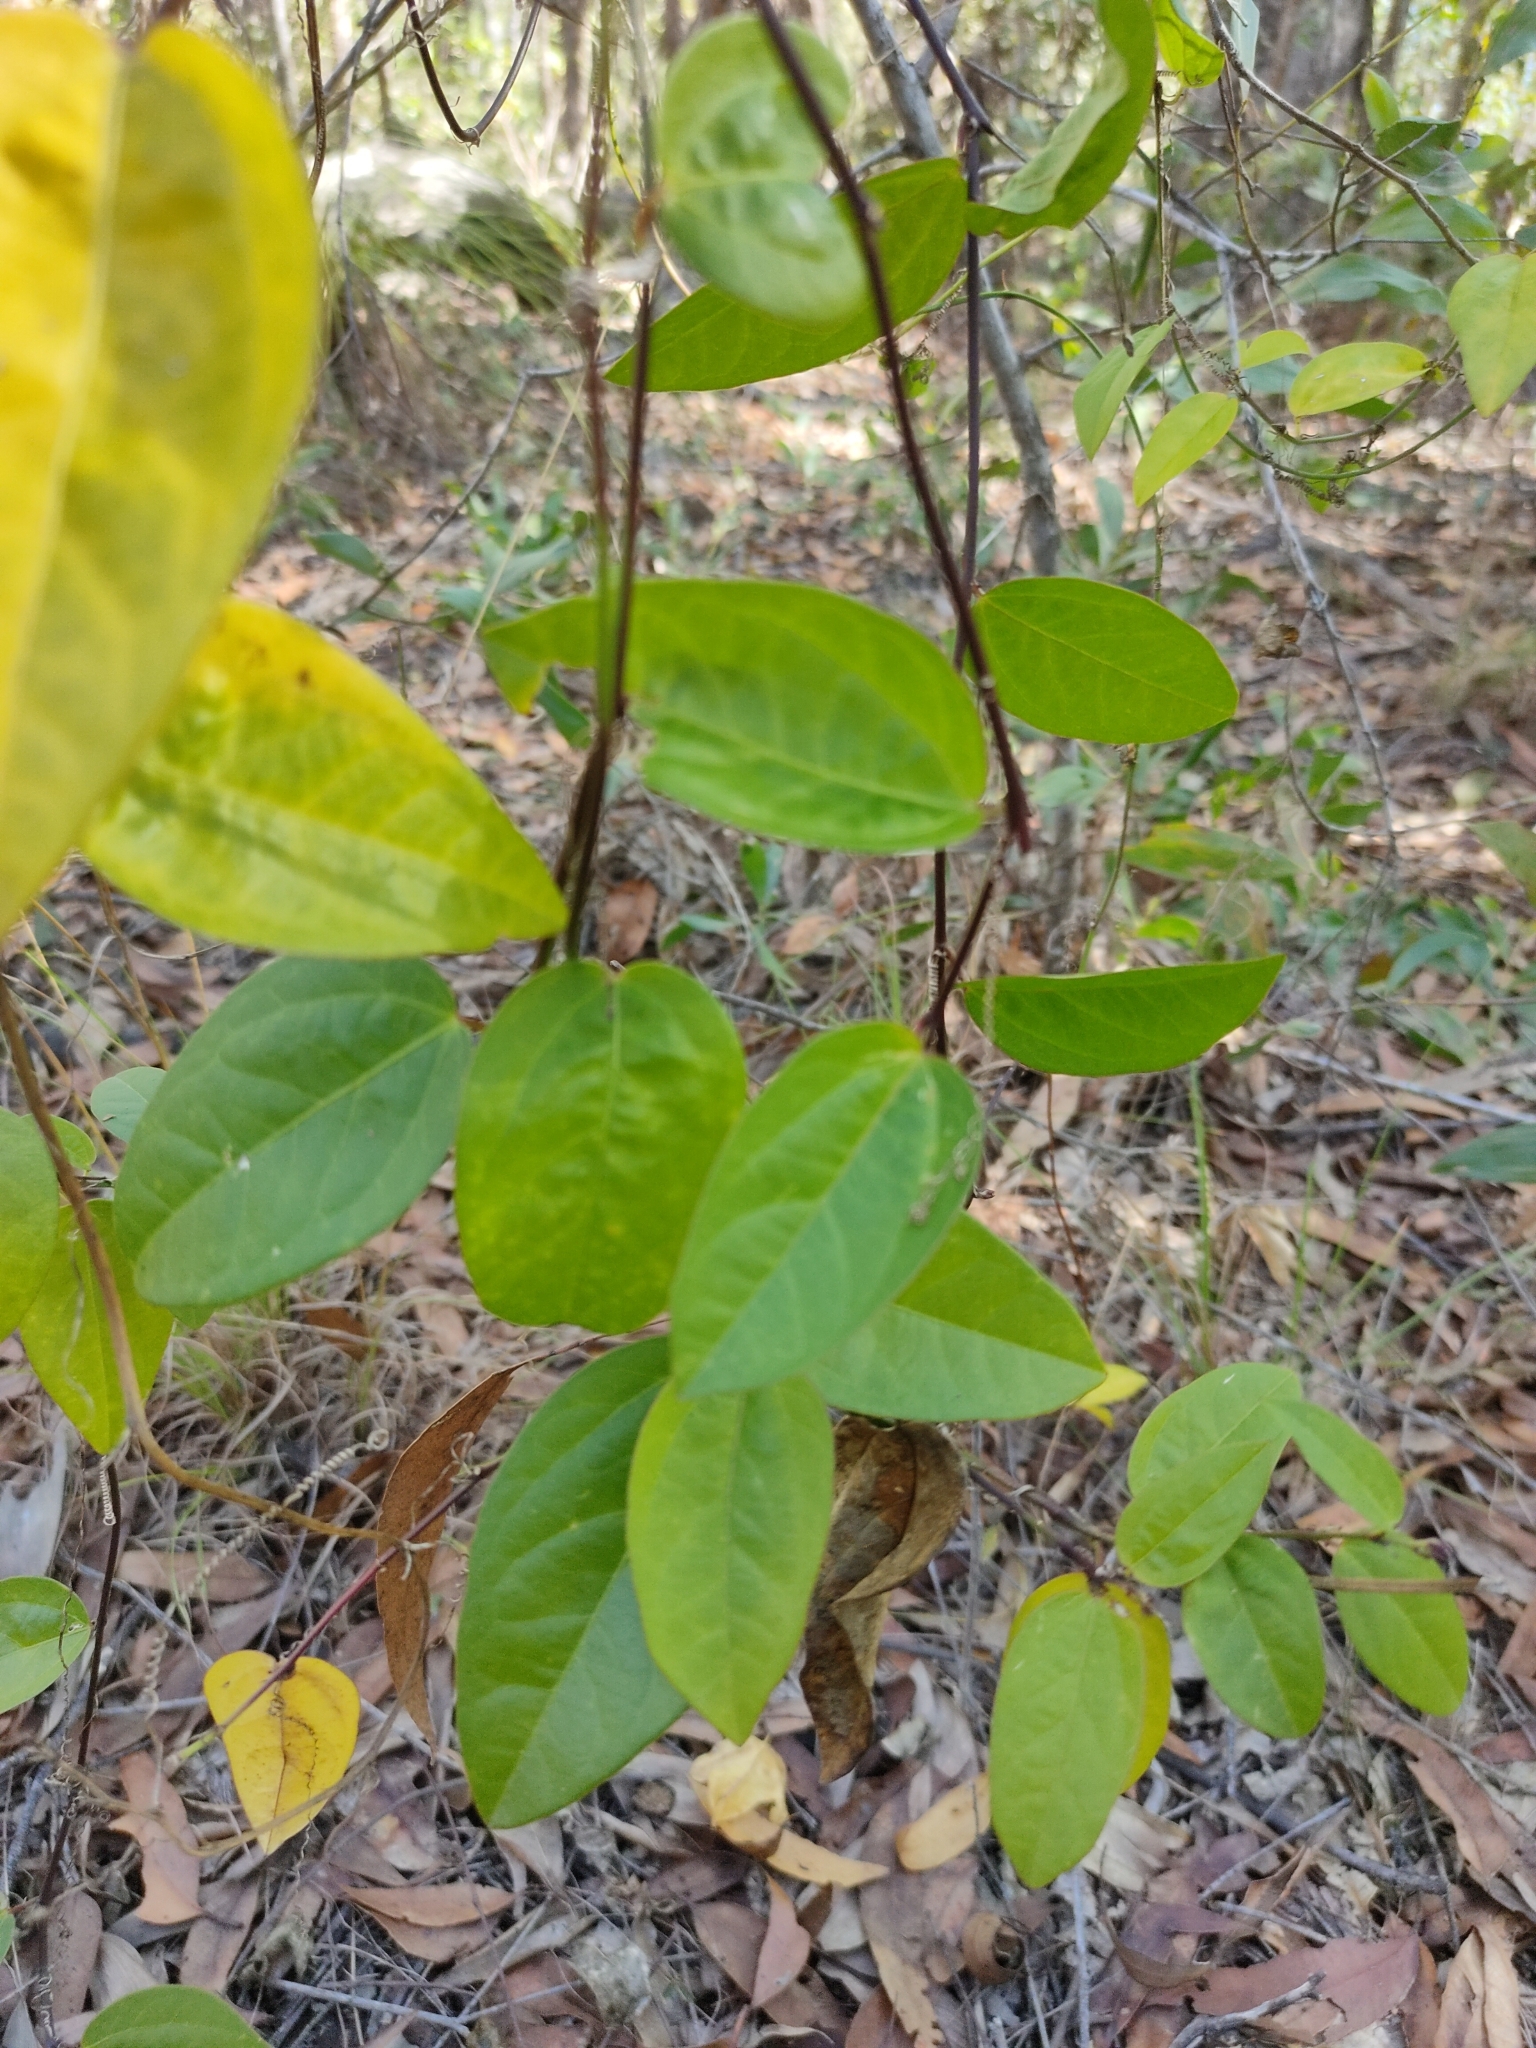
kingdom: Plantae
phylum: Tracheophyta
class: Magnoliopsida
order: Malpighiales
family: Passifloraceae
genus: Passiflora
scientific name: Passiflora pallida
